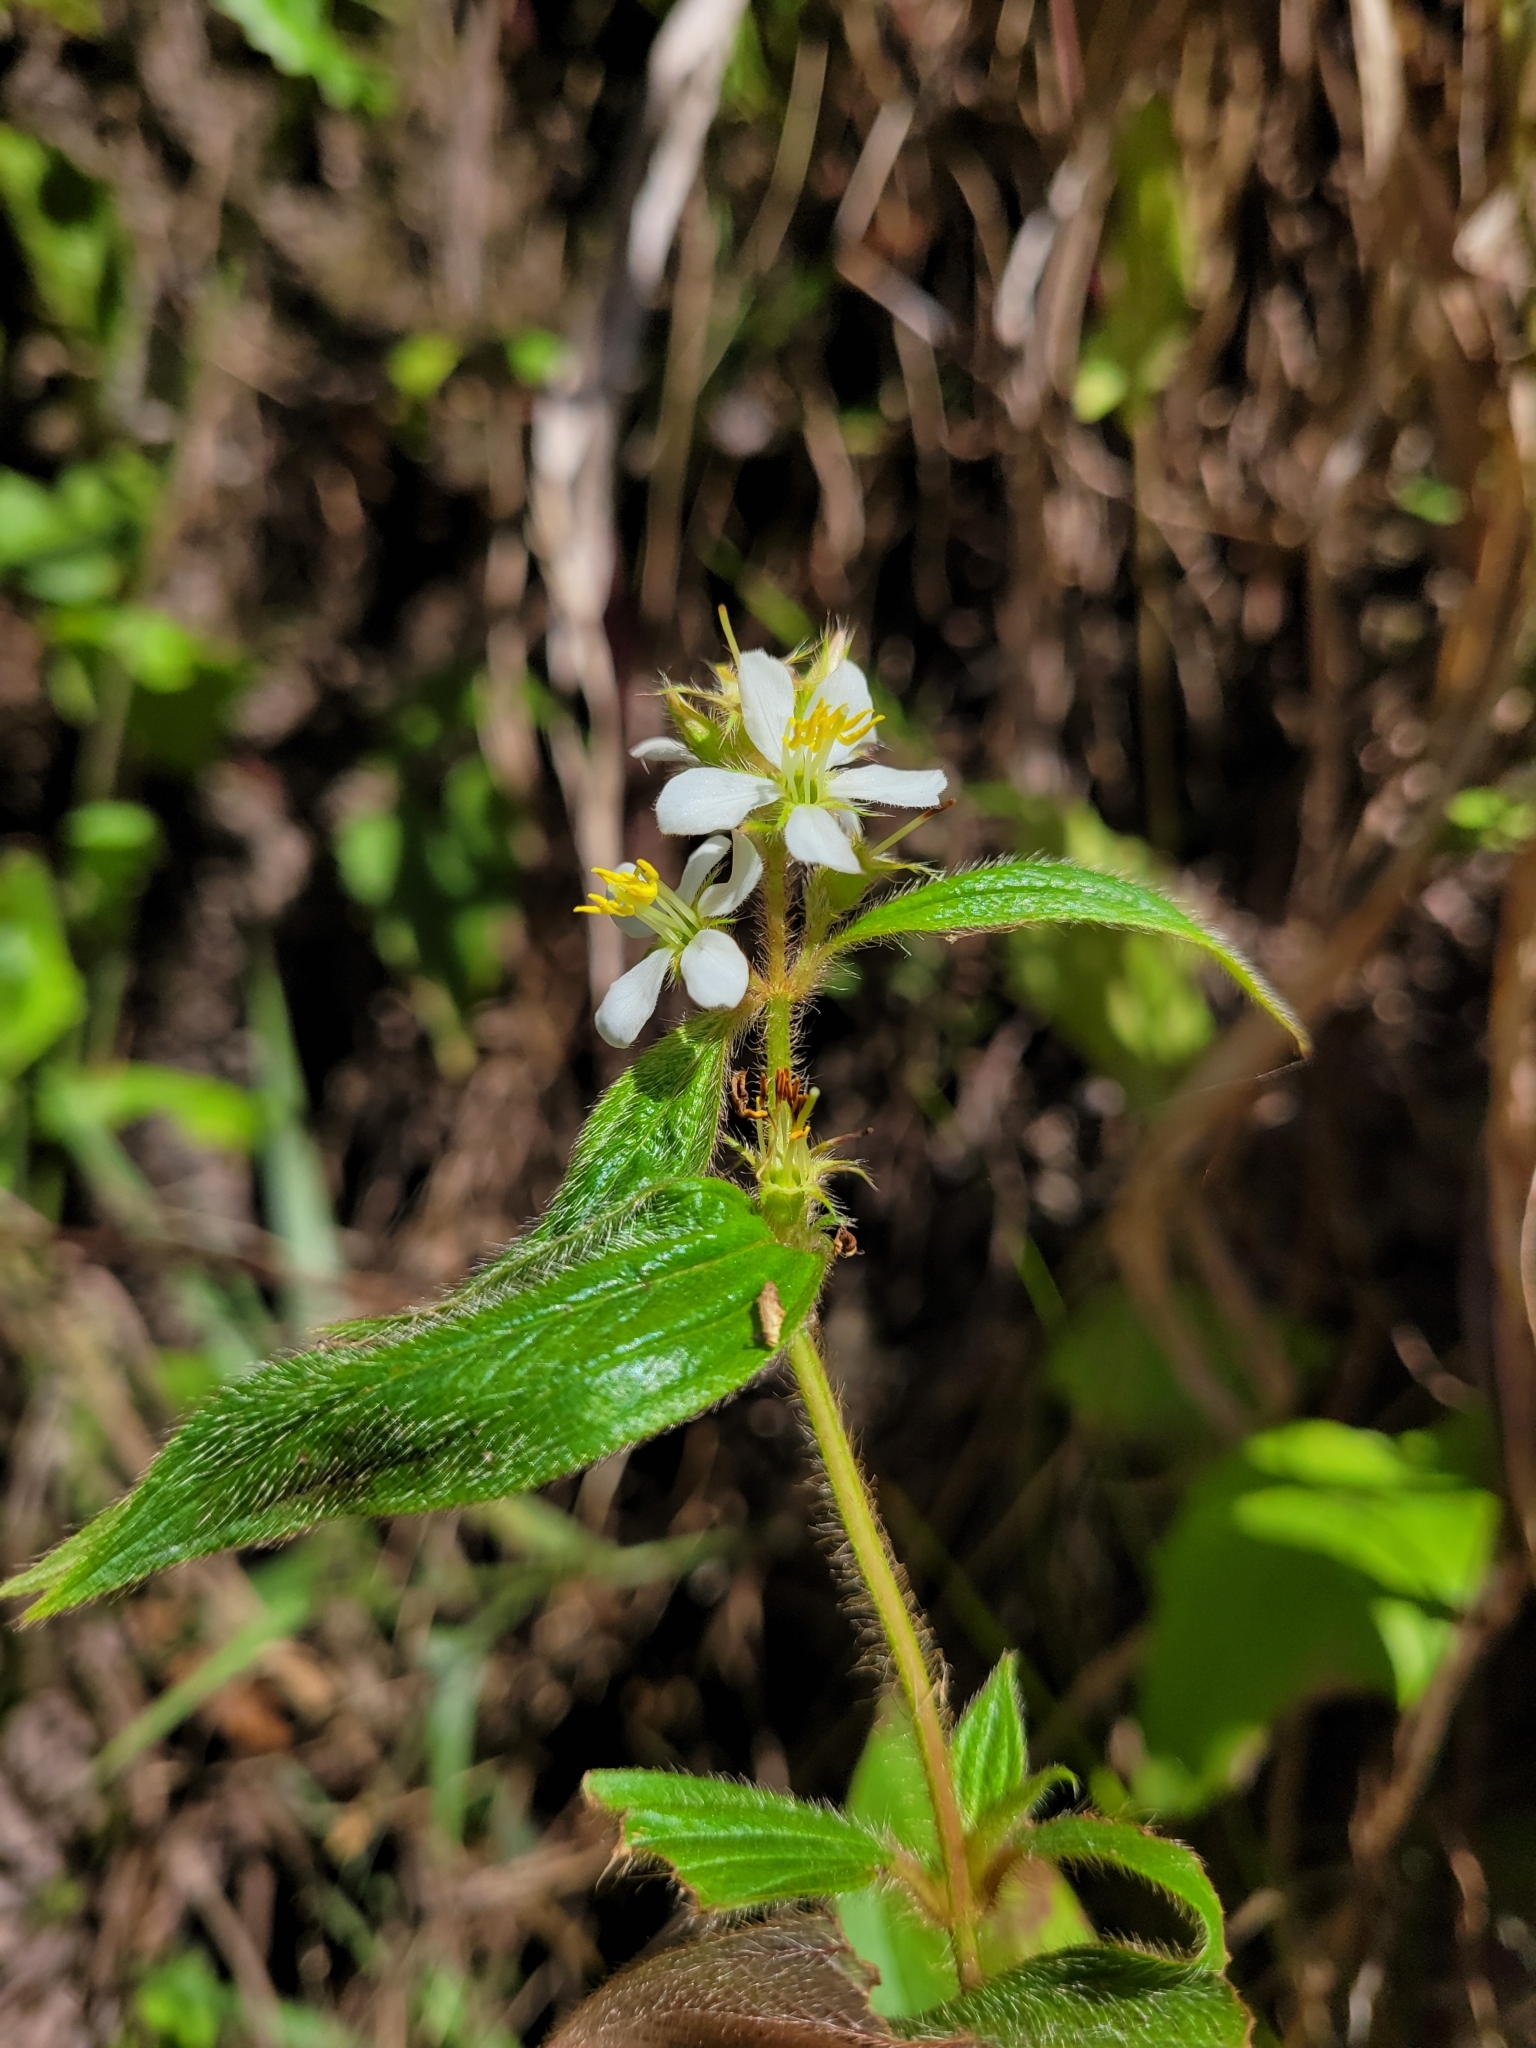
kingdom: Plantae
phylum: Tracheophyta
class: Magnoliopsida
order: Myrtales
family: Melastomataceae
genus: Chaetogastra
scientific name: Chaetogastra longifolia
